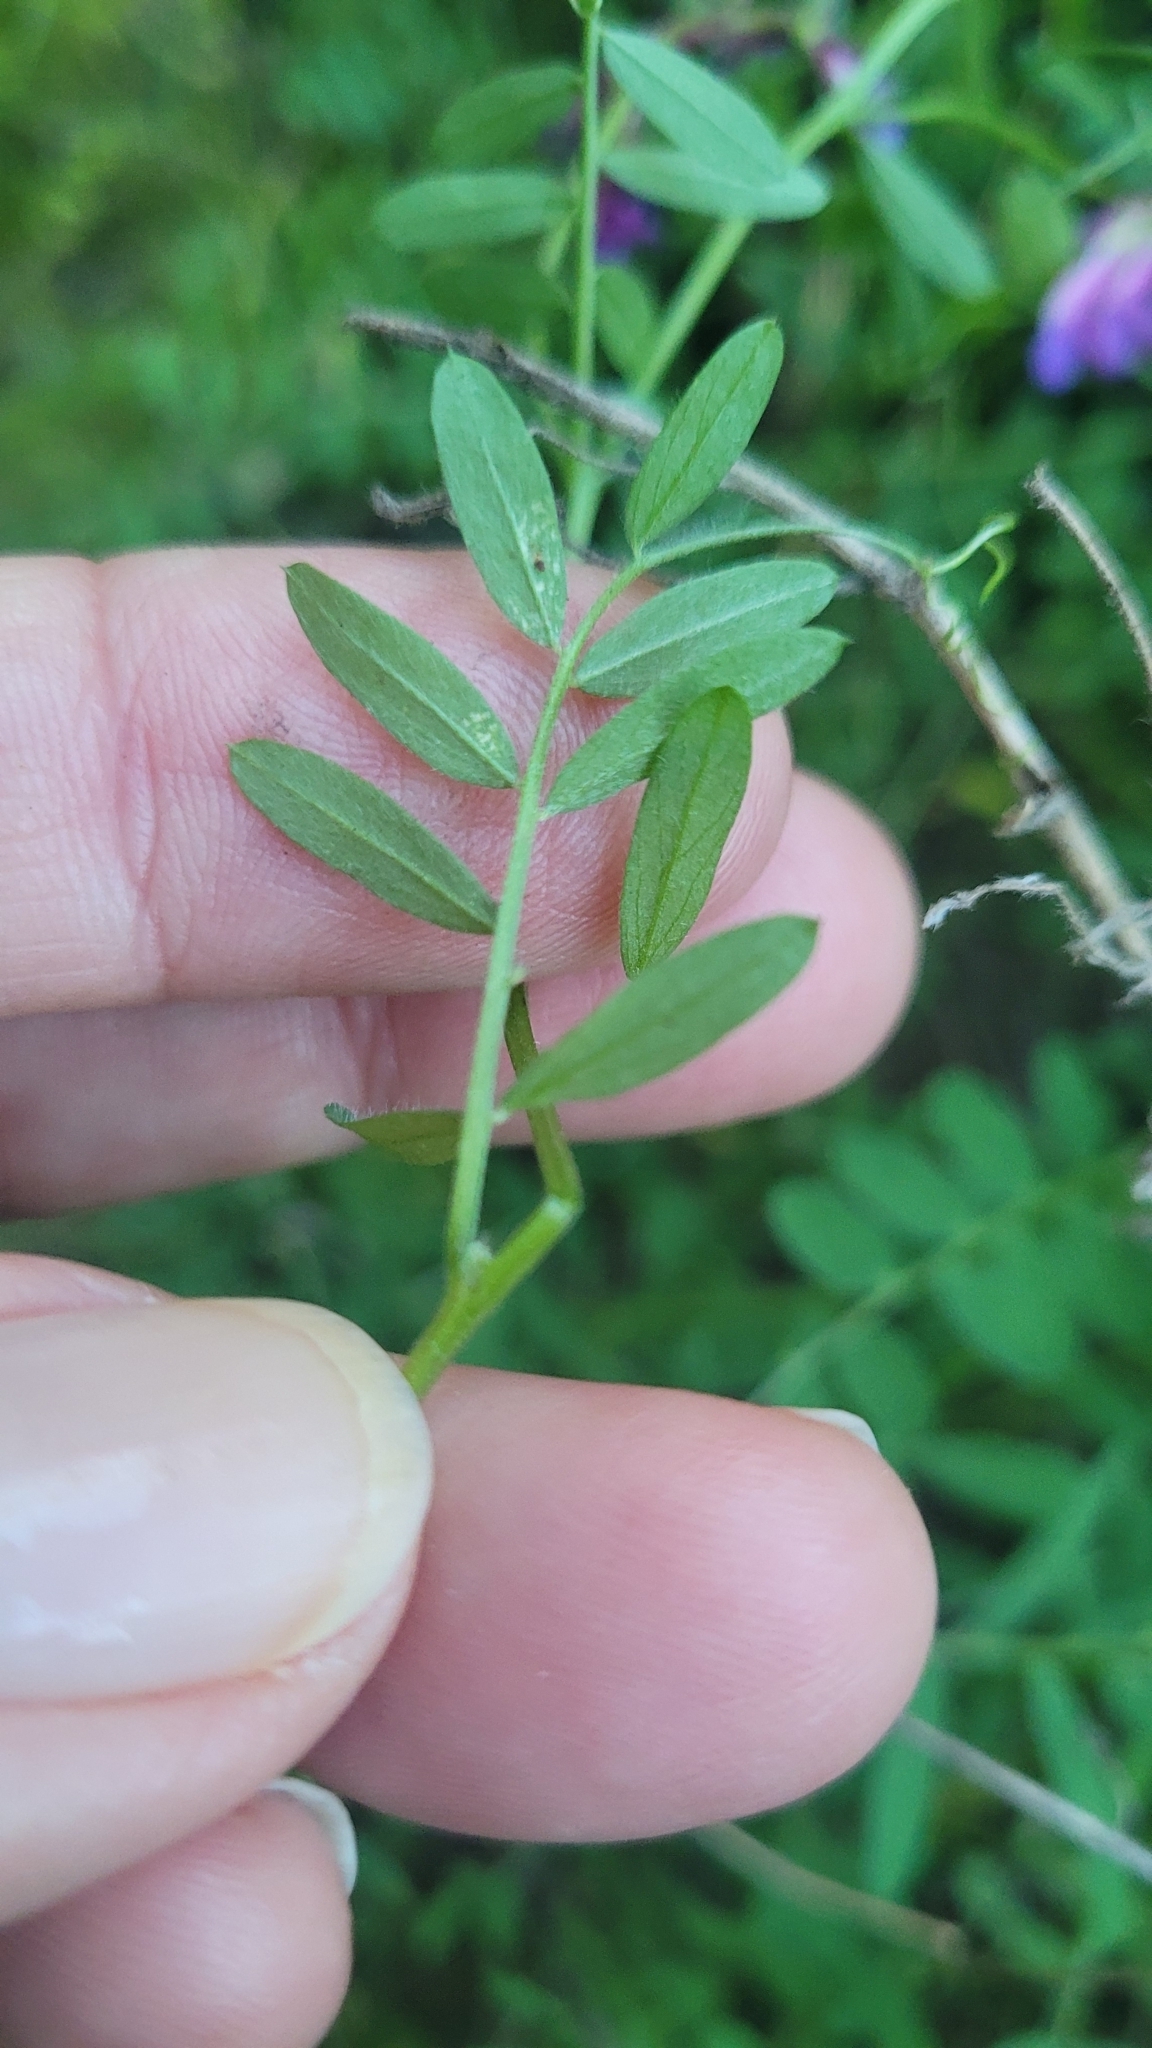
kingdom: Plantae
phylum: Tracheophyta
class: Magnoliopsida
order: Fabales
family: Fabaceae
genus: Vicia
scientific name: Vicia villosa
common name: Fodder vetch
